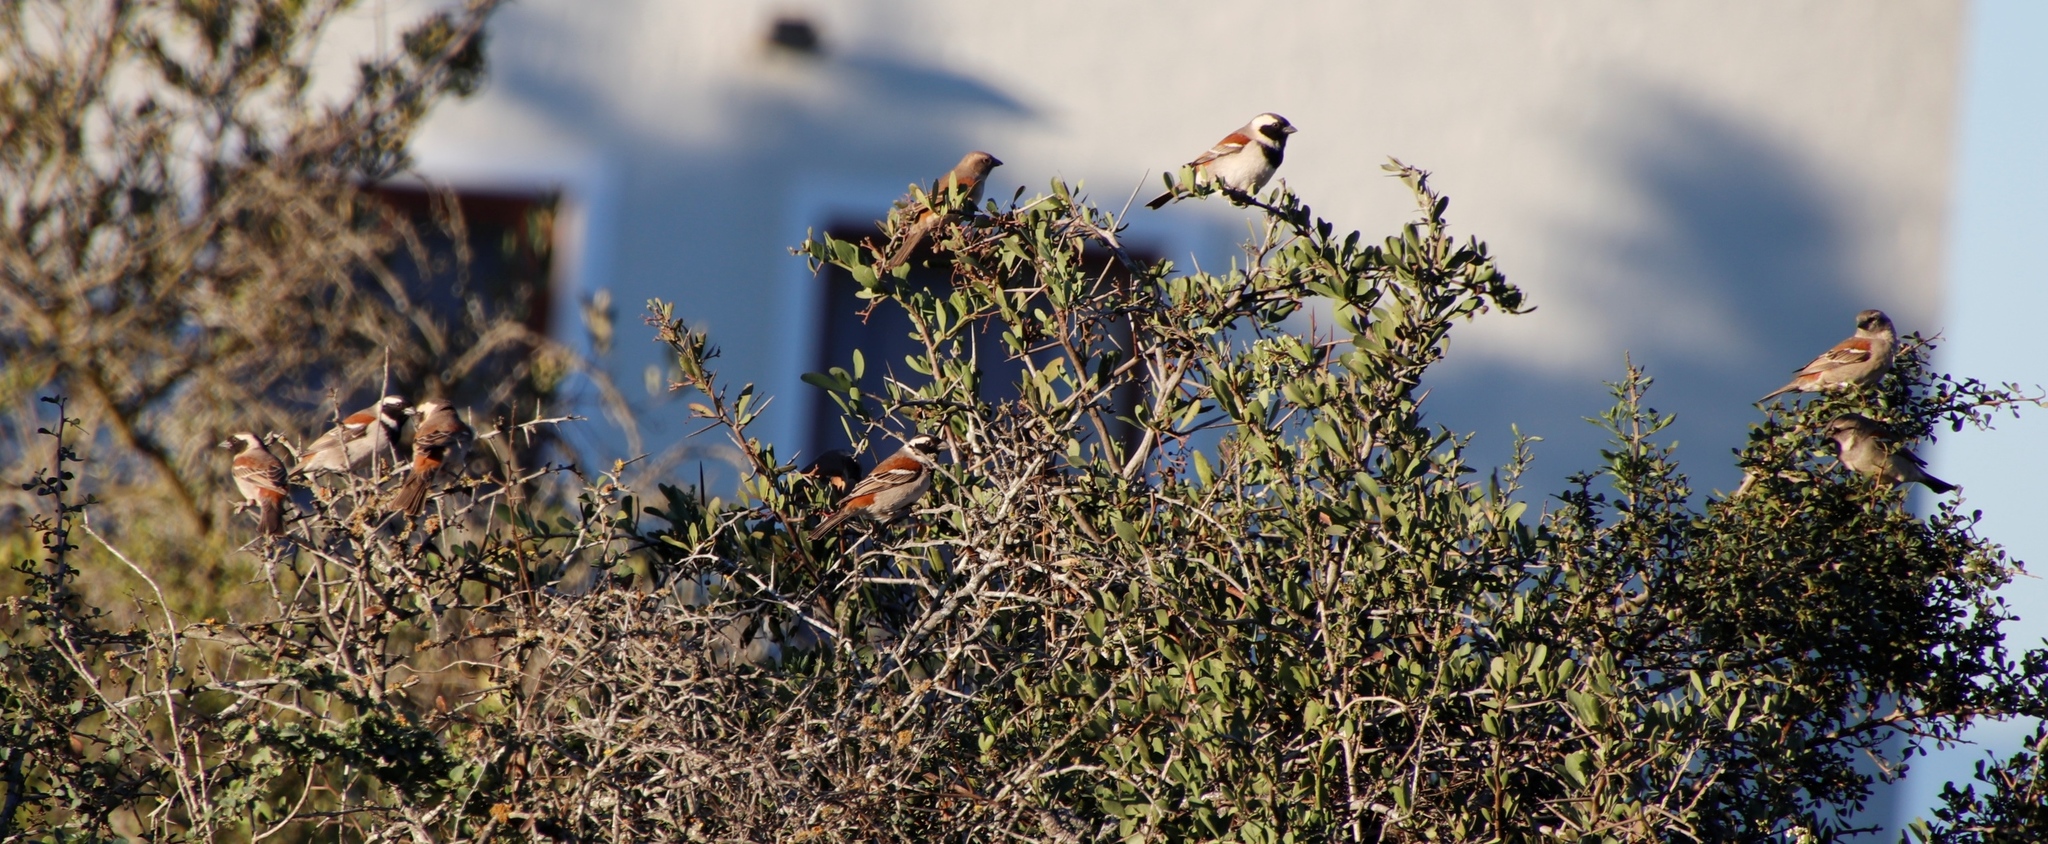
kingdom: Animalia
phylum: Chordata
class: Aves
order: Passeriformes
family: Passeridae
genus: Passer
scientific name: Passer melanurus
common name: Cape sparrow
